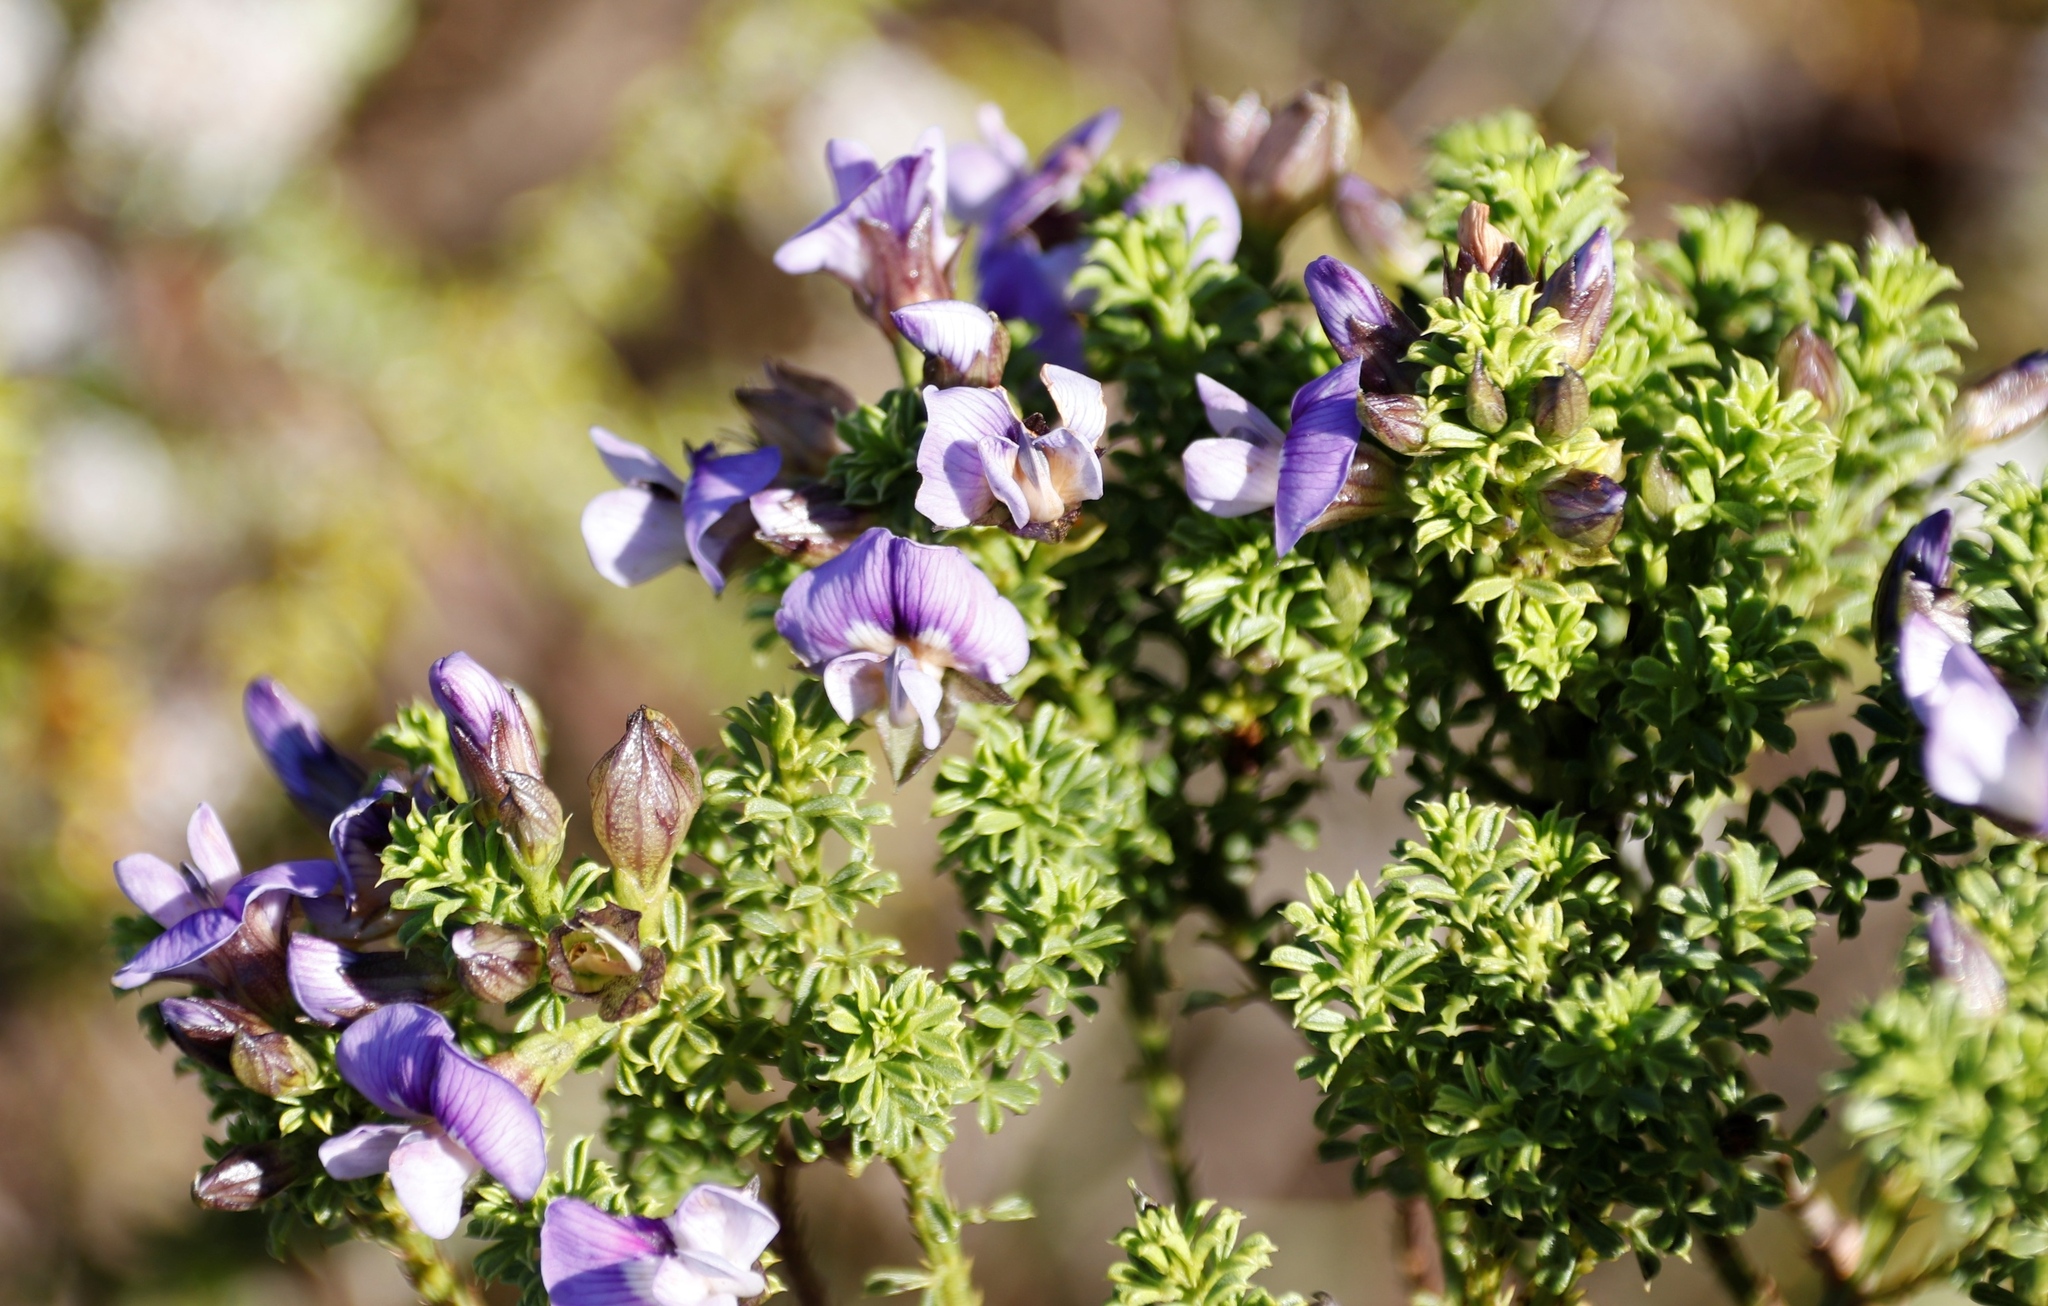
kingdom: Plantae
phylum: Tracheophyta
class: Magnoliopsida
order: Fabales
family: Fabaceae
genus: Psoralea
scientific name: Psoralea aculeata
